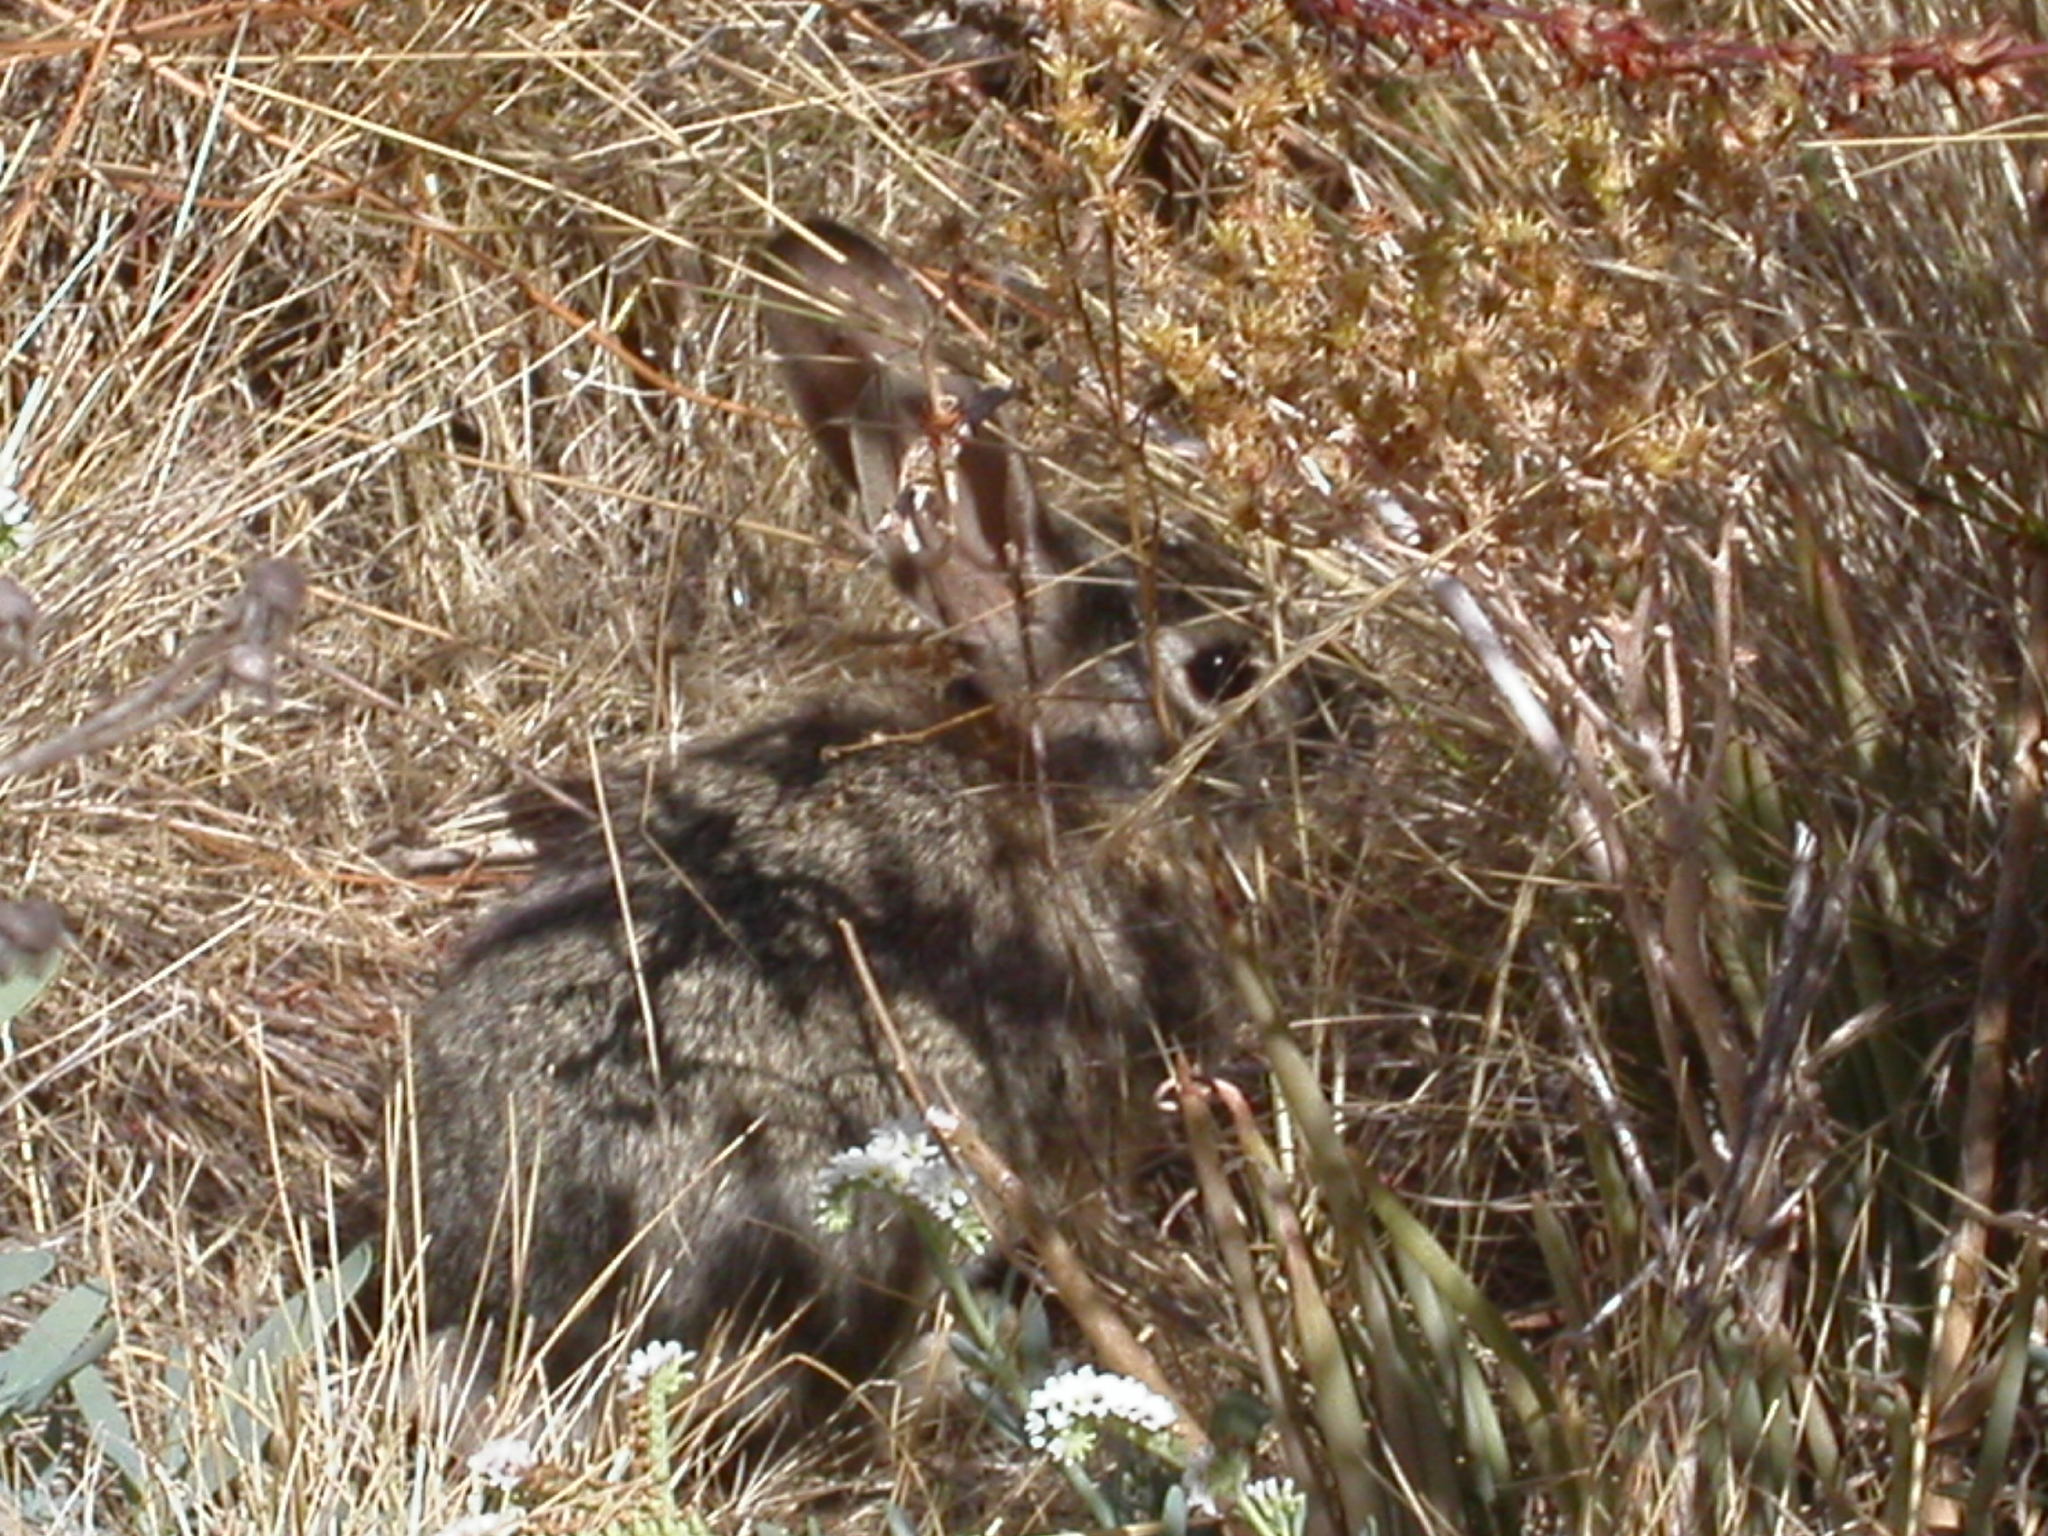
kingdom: Animalia
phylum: Chordata
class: Mammalia
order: Lagomorpha
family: Leporidae
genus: Sylvilagus
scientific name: Sylvilagus audubonii
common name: Desert cottontail
